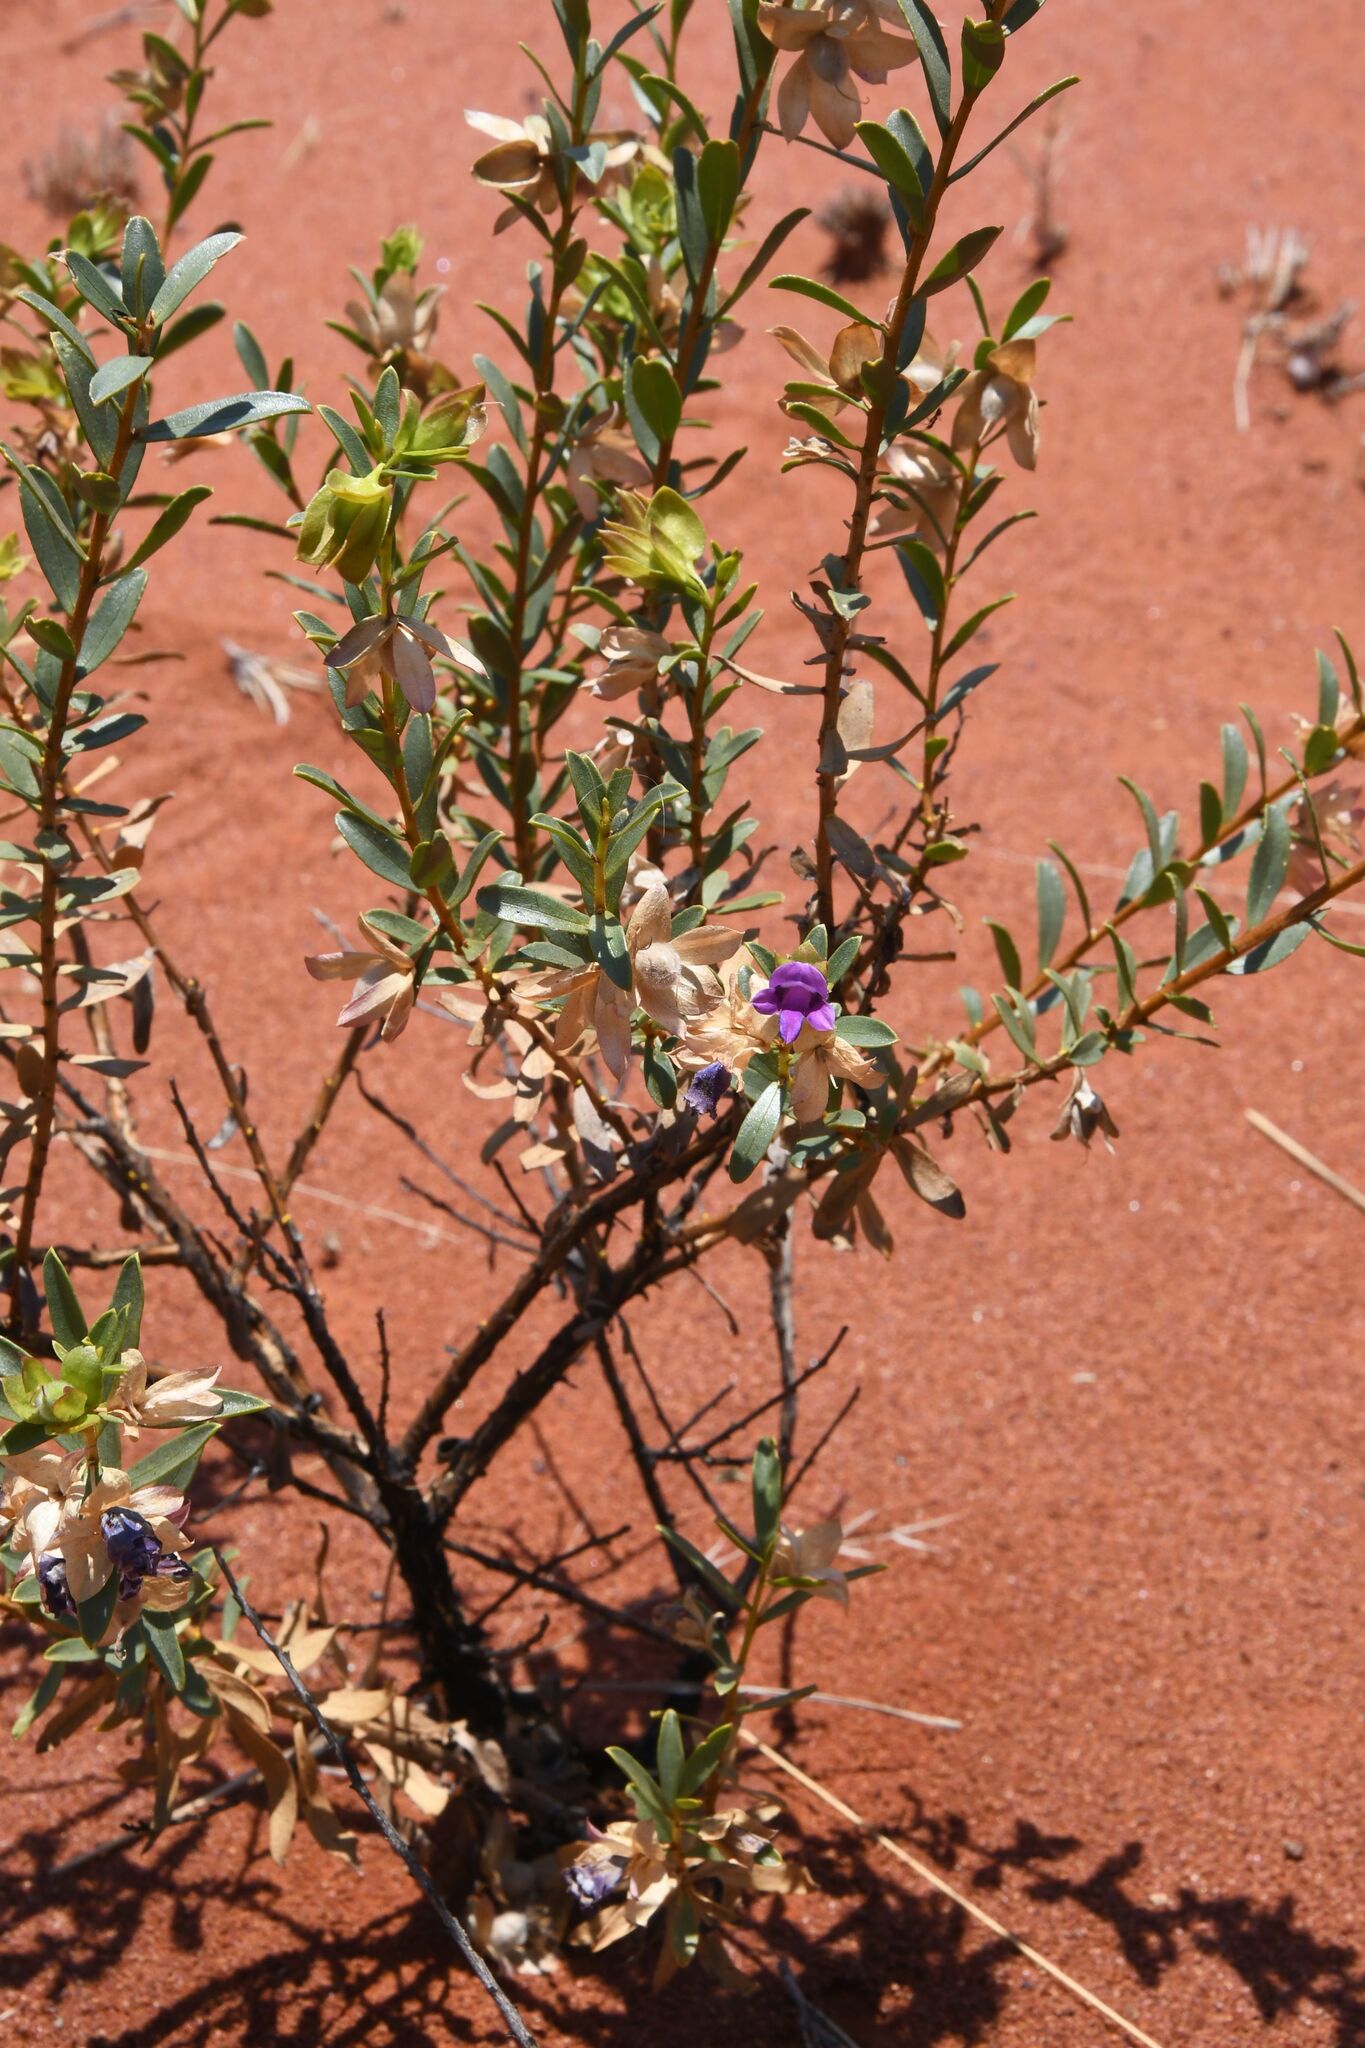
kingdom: Plantae
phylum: Tracheophyta
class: Magnoliopsida
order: Lamiales
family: Scrophulariaceae
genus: Eremophila
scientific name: Eremophila willsii
